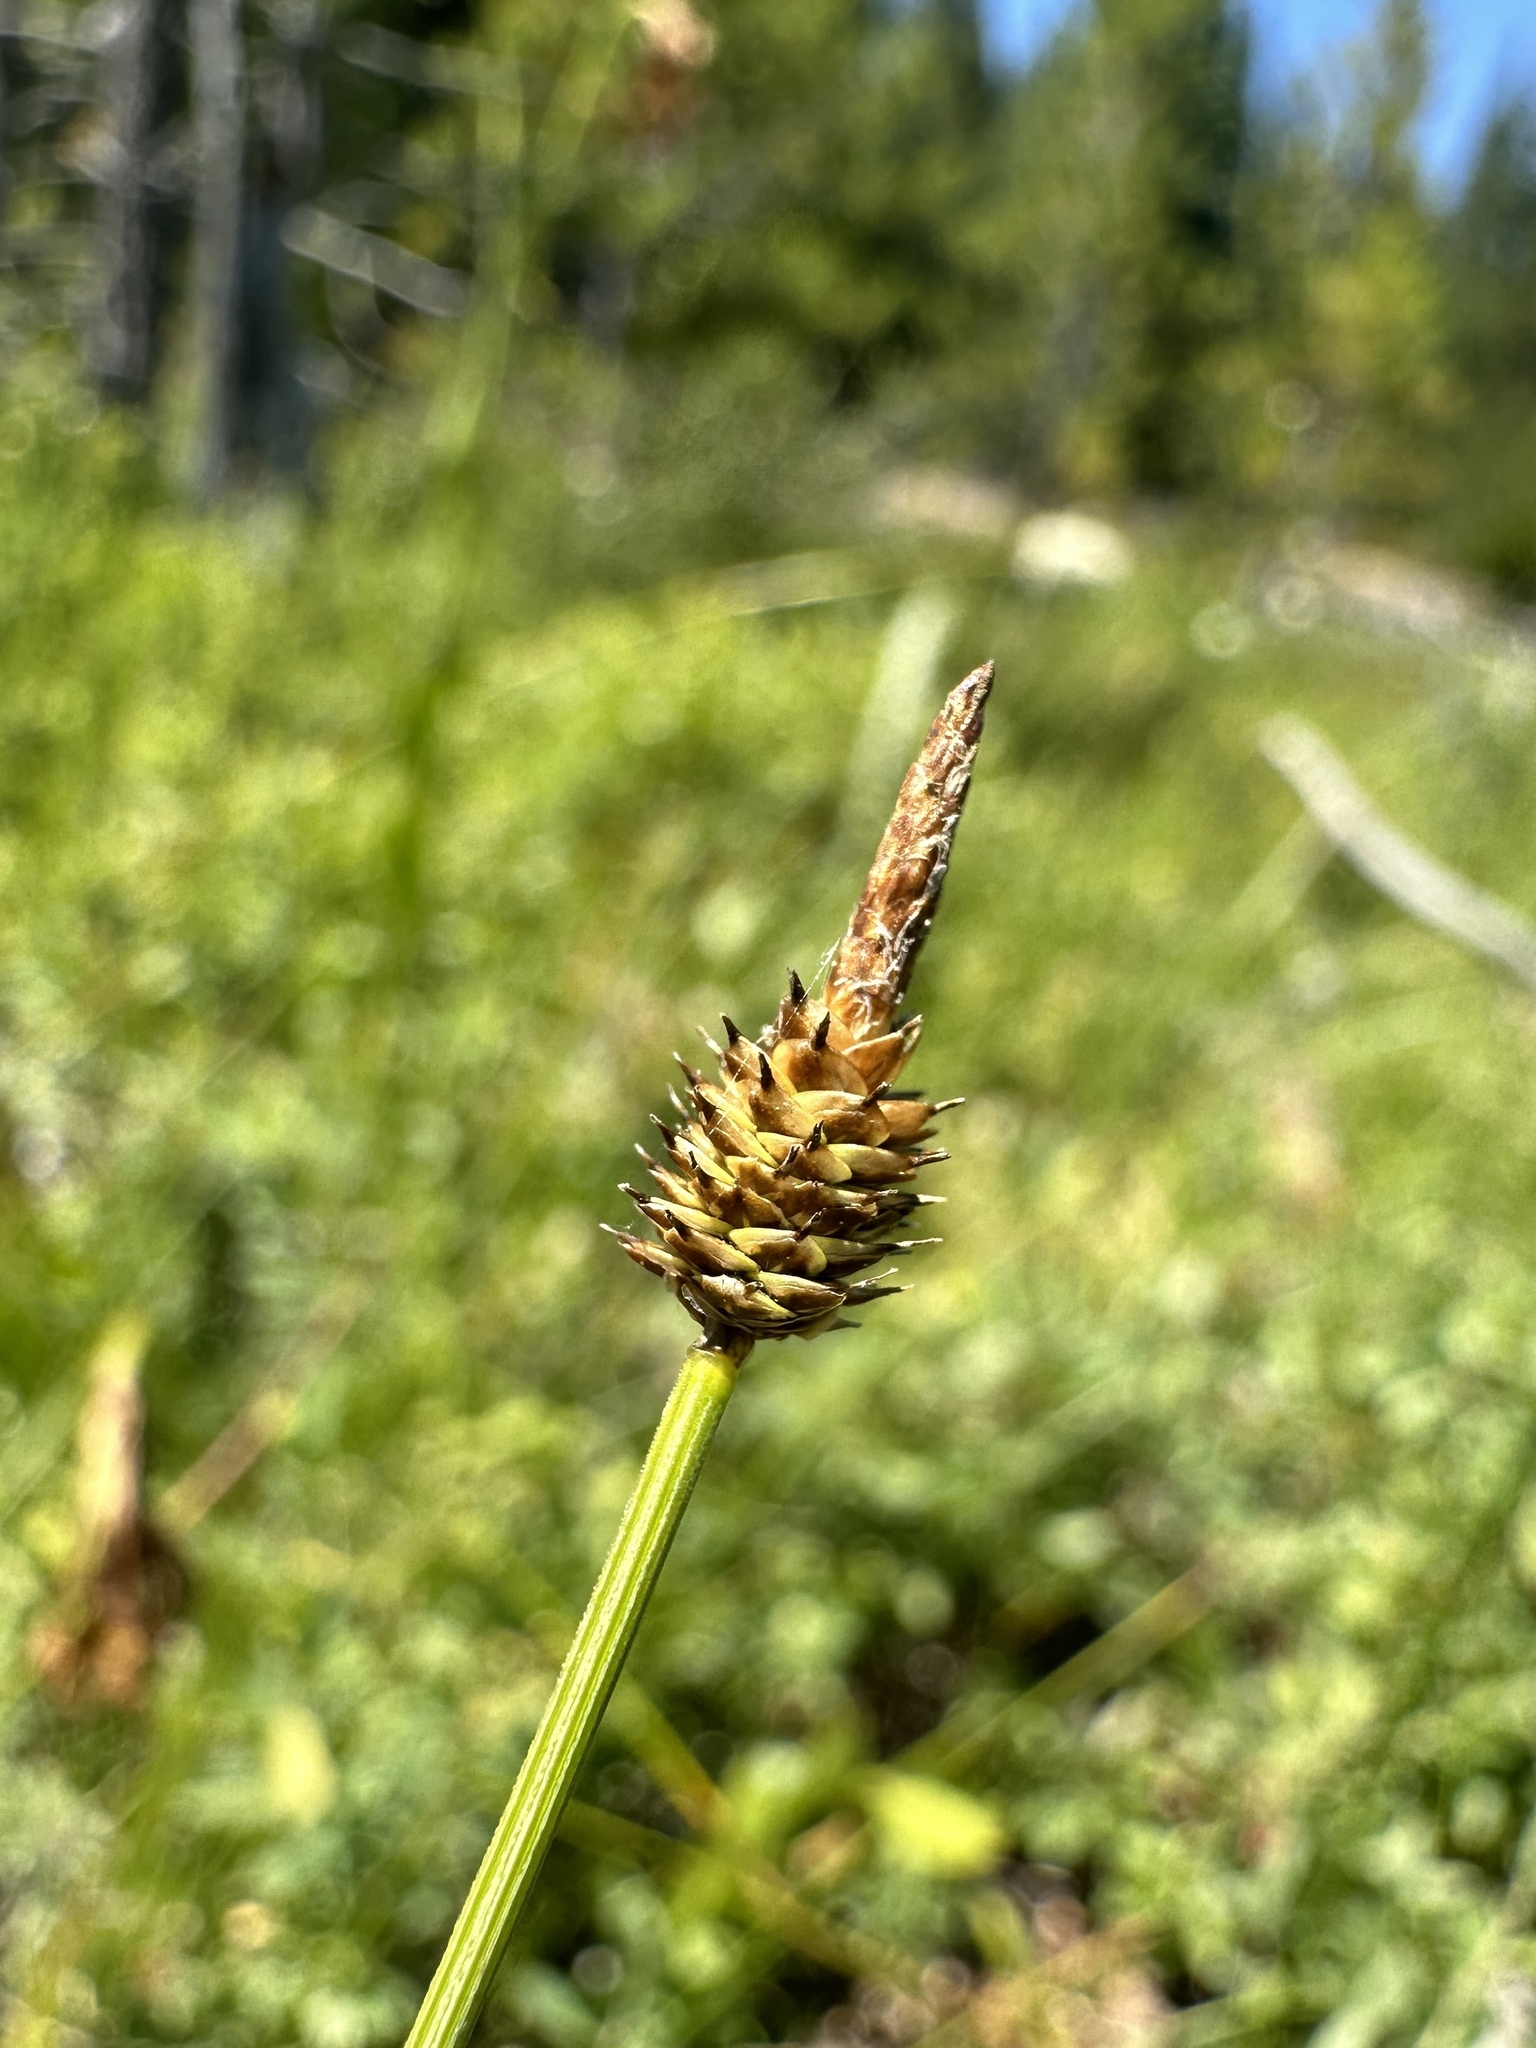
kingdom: Plantae
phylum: Tracheophyta
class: Liliopsida
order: Poales
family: Cyperaceae
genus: Carex
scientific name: Carex capitata
